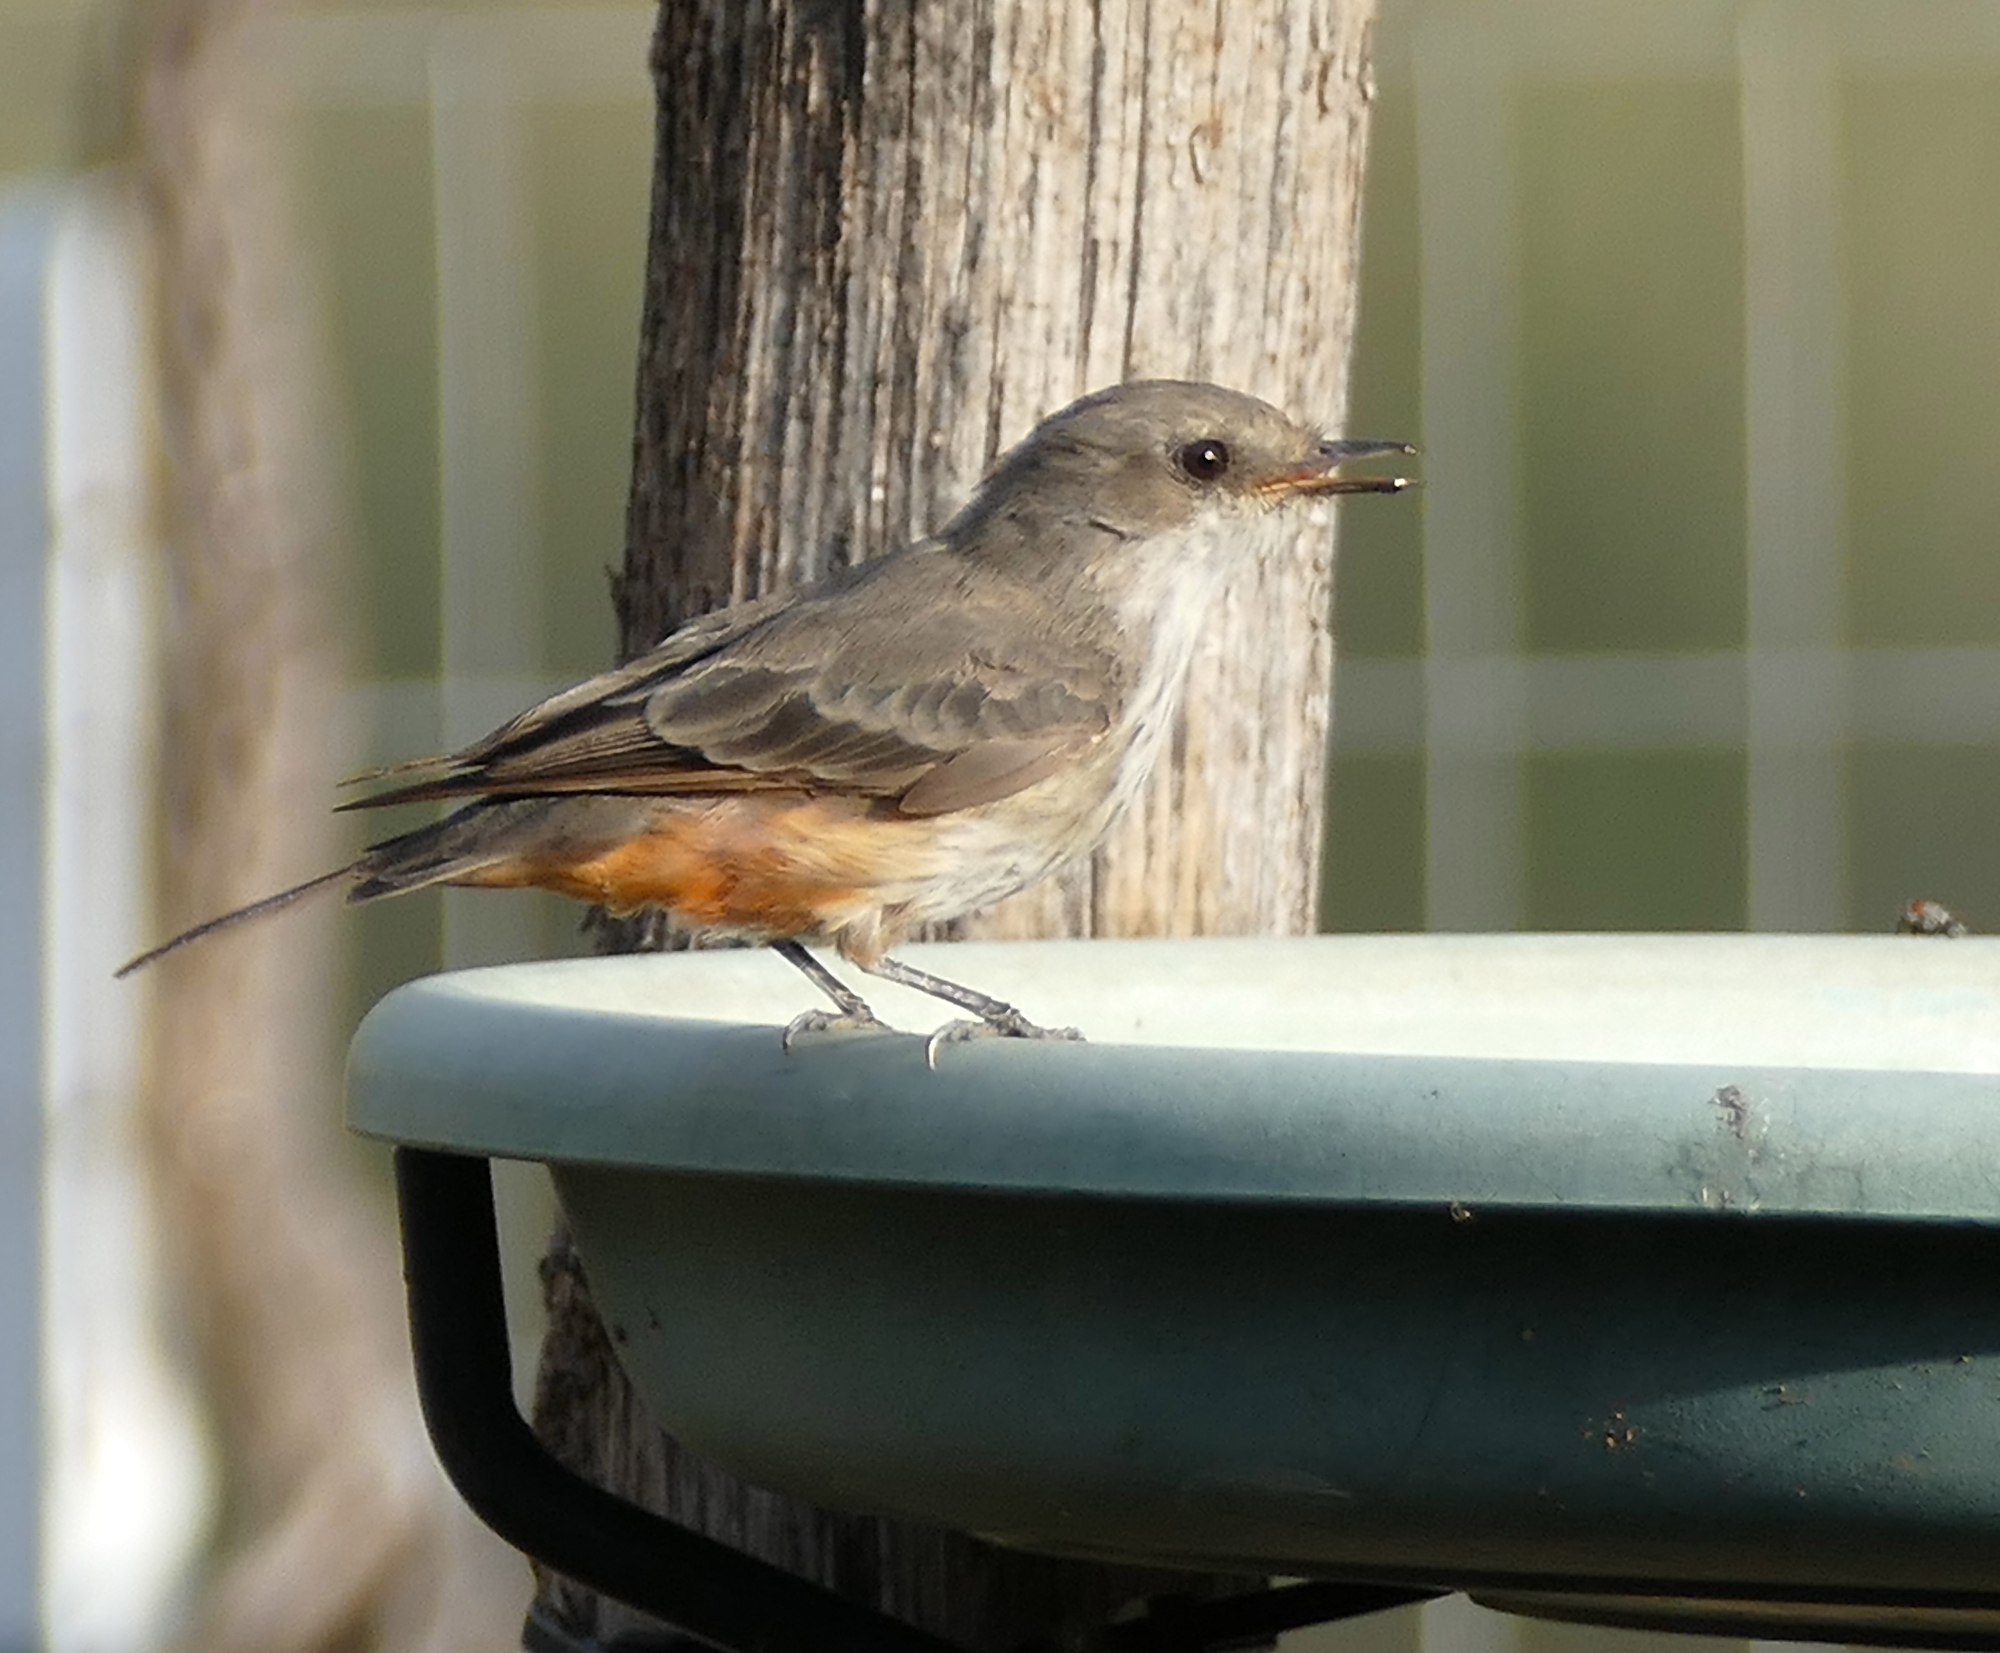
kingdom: Animalia
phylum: Chordata
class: Aves
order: Passeriformes
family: Tyrannidae
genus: Pyrocephalus
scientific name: Pyrocephalus rubinus
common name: Vermilion flycatcher
